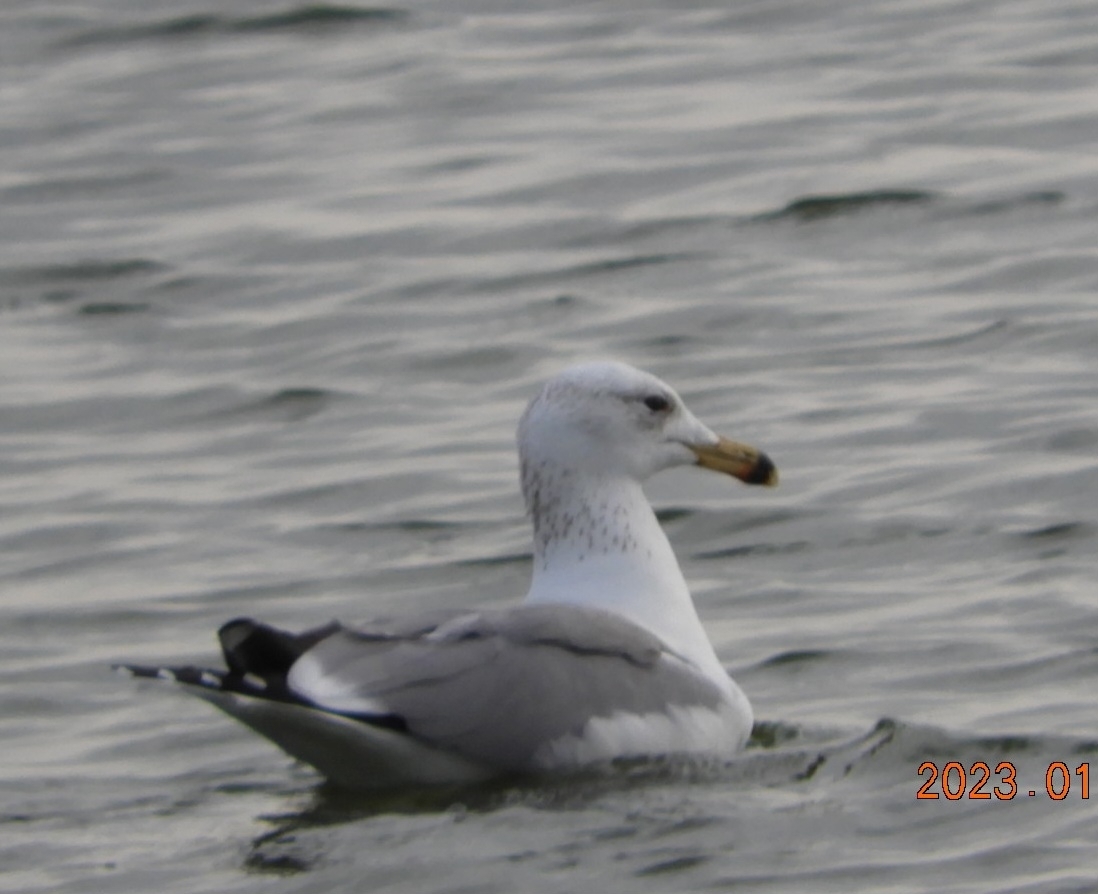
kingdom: Animalia
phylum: Chordata
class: Aves
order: Charadriiformes
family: Laridae
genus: Larus
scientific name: Larus armenicus
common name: Armenian gull
